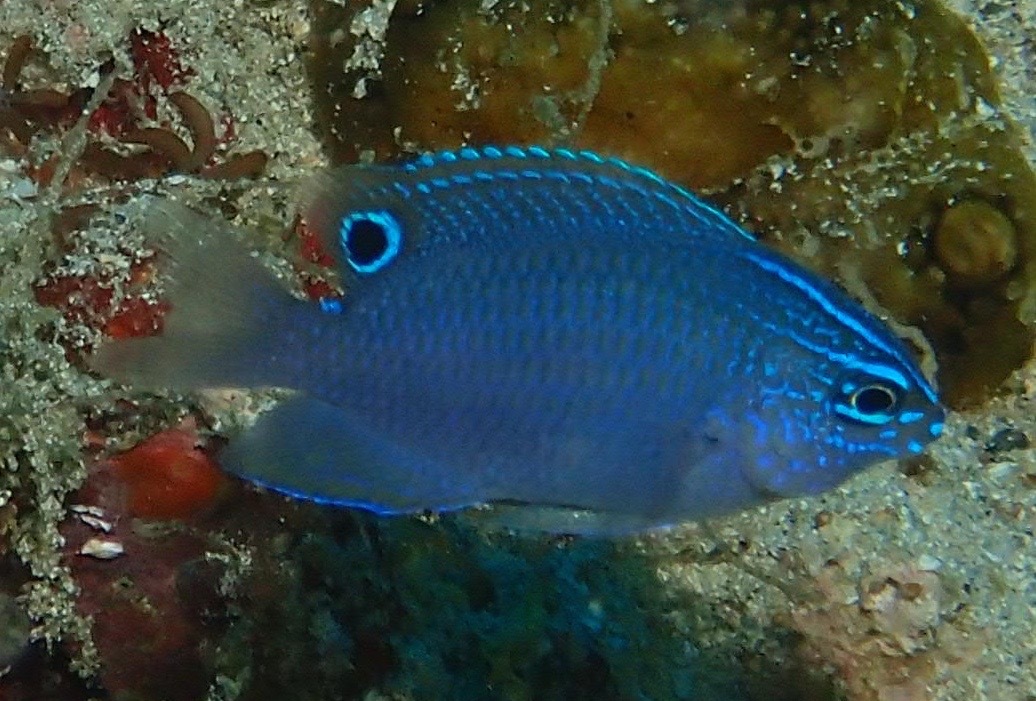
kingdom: Animalia
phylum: Chordata
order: Perciformes
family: Pomacentridae
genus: Pomacentrus
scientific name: Pomacentrus cuneatus
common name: Wedgespot damsel
